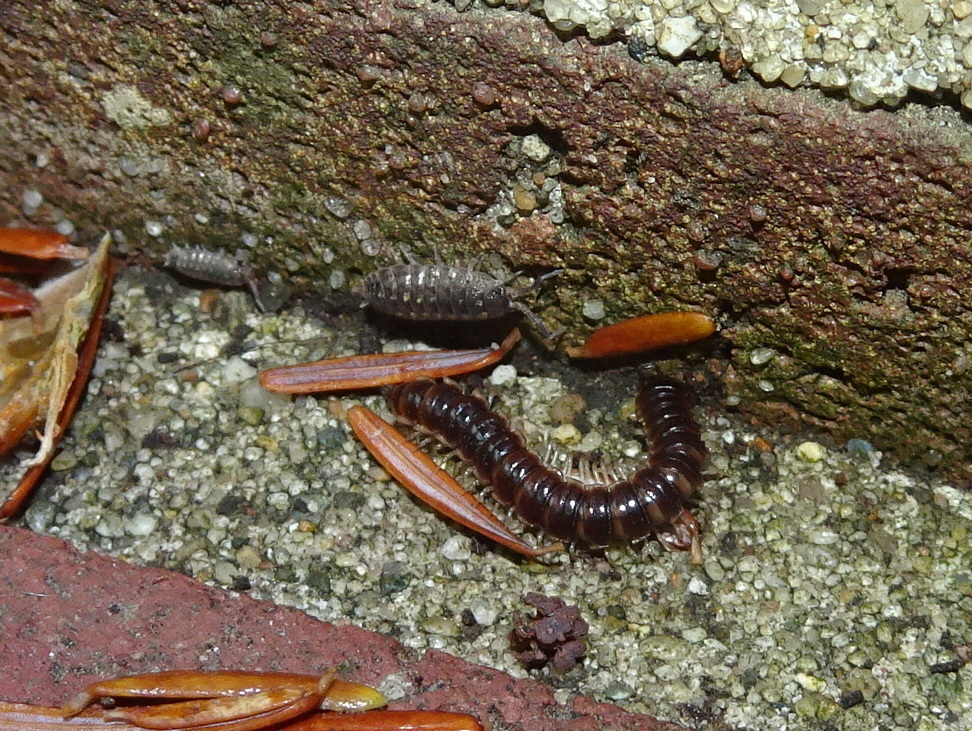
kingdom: Animalia
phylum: Arthropoda
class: Diplopoda
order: Polydesmida
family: Paradoxosomatidae
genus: Oxidus
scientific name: Oxidus gracilis
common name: Greenhouse millipede
